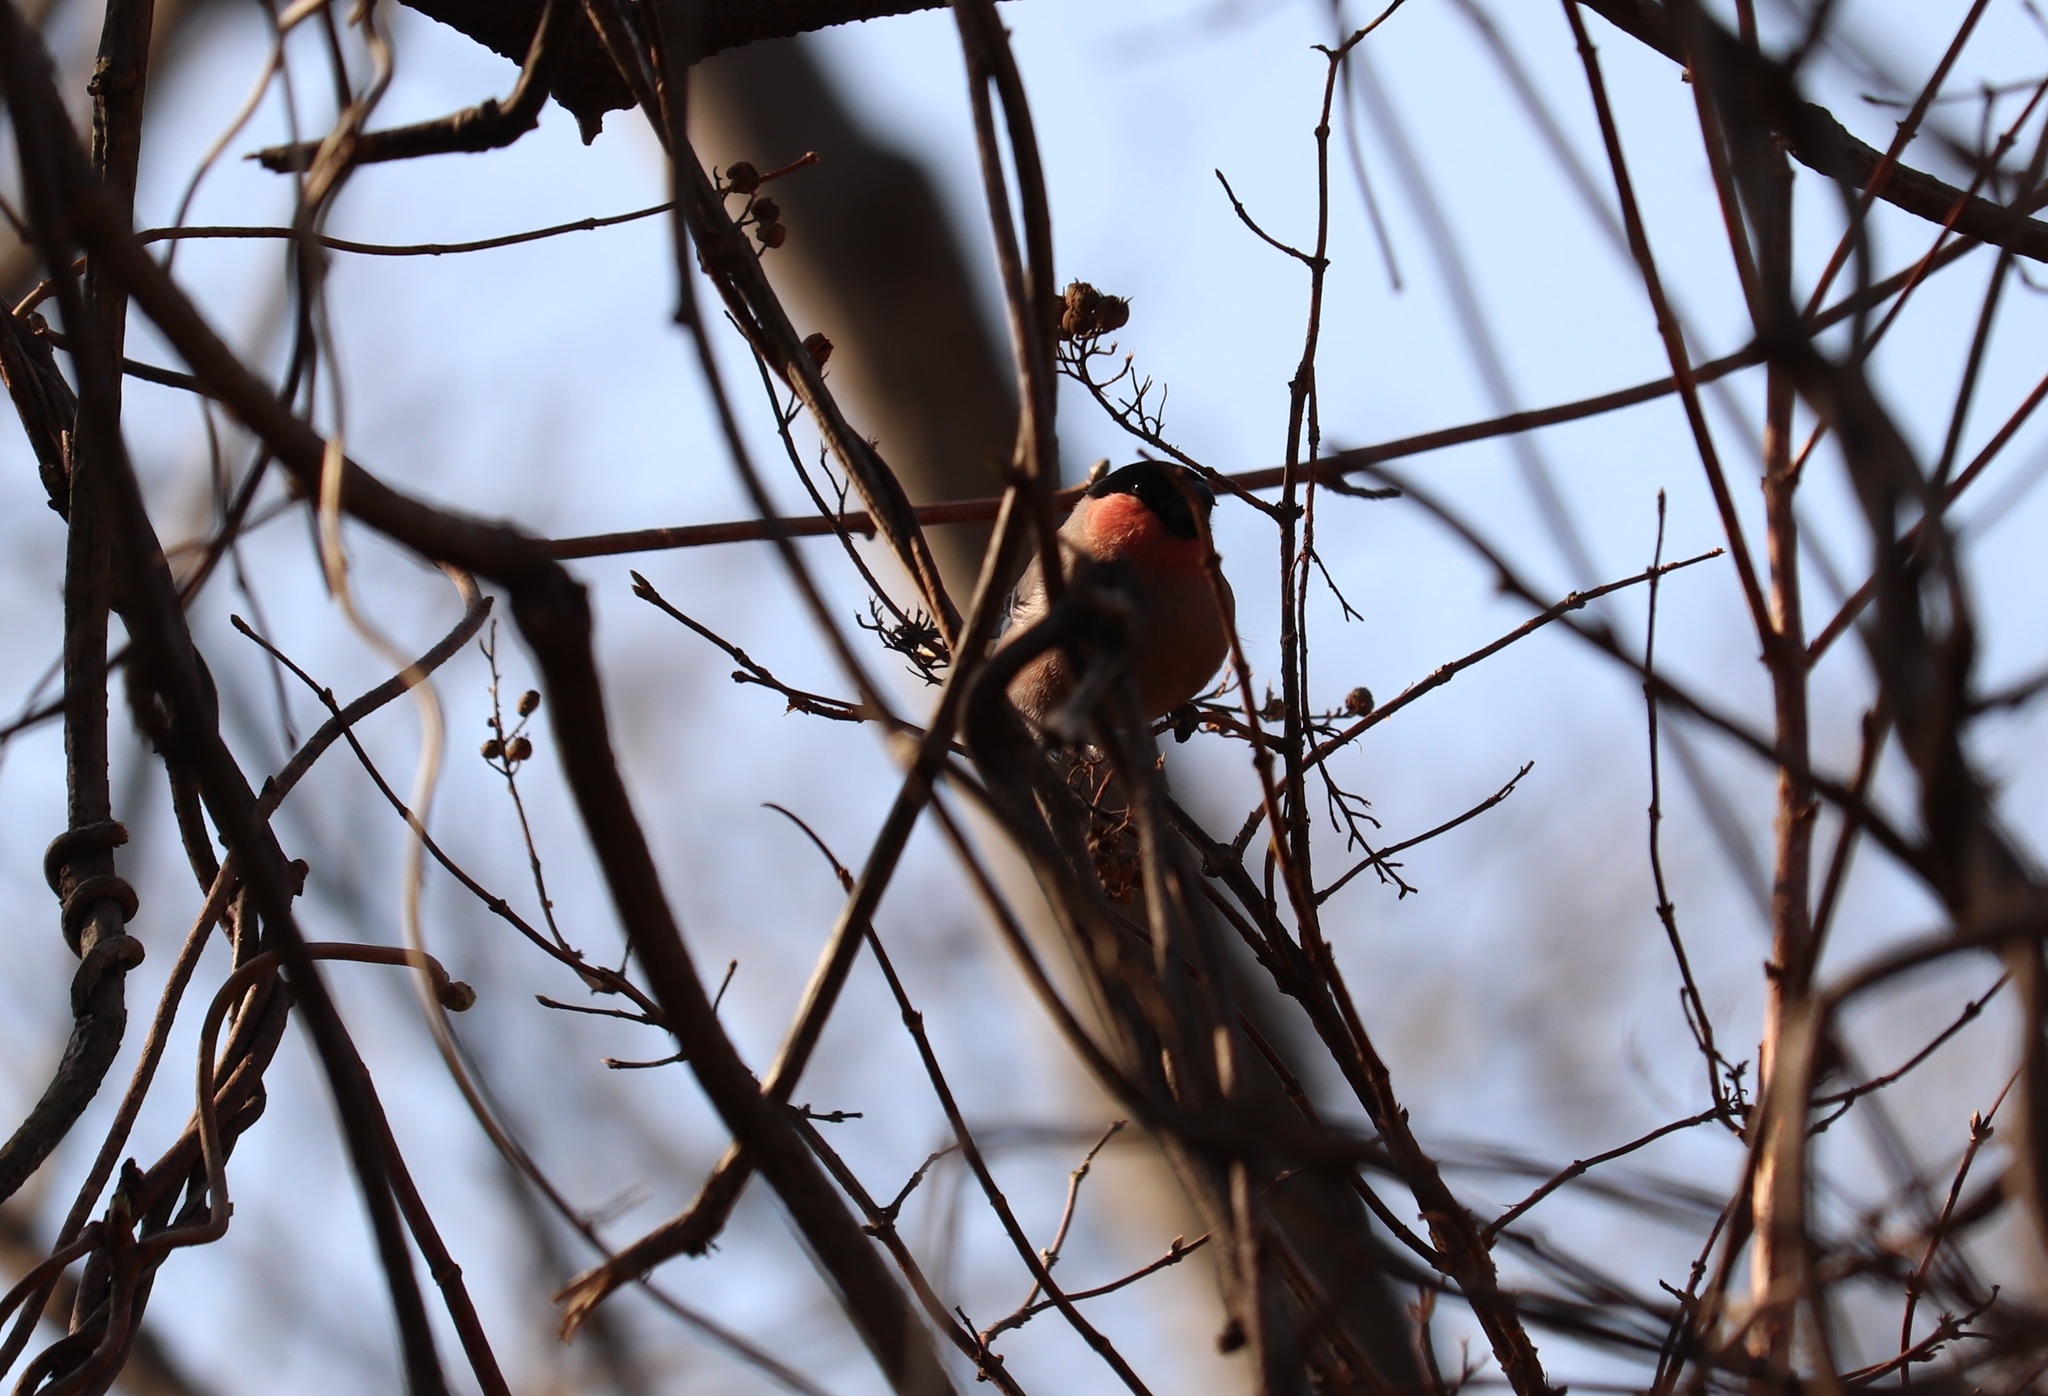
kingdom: Animalia
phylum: Chordata
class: Aves
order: Passeriformes
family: Fringillidae
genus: Pyrrhula
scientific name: Pyrrhula pyrrhula
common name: Eurasian bullfinch
